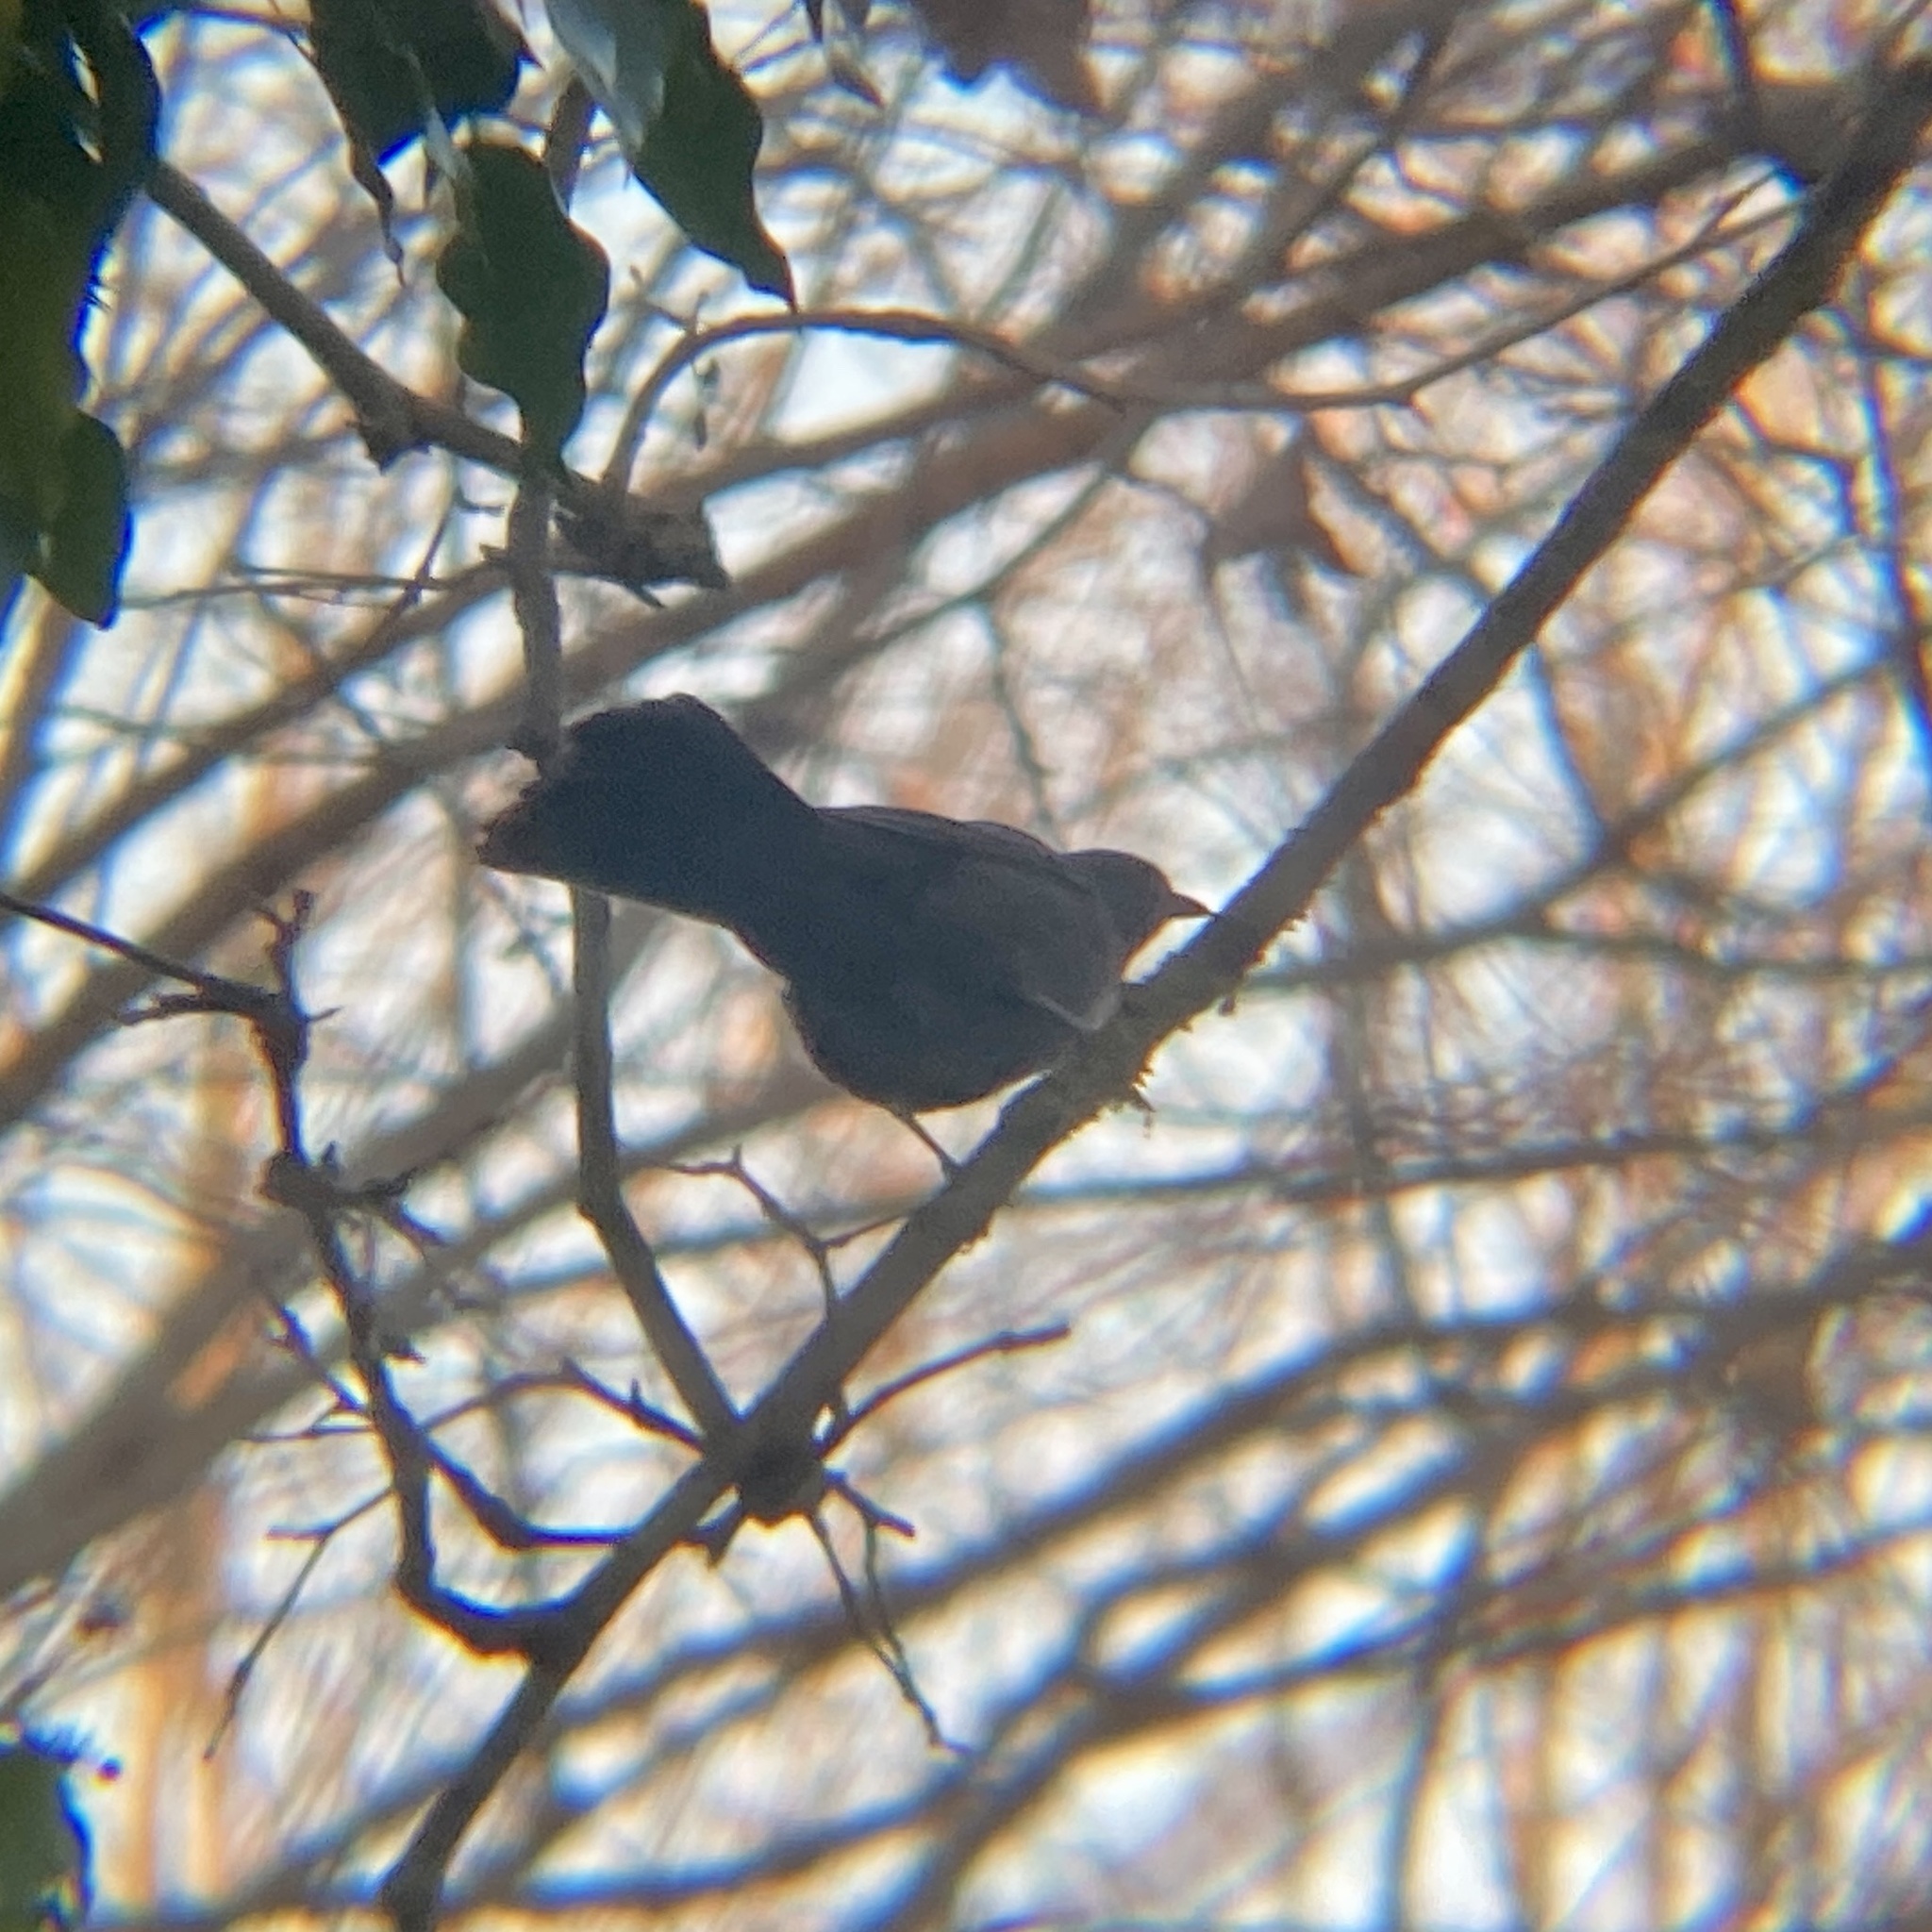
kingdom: Animalia
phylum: Chordata
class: Aves
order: Passeriformes
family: Turdidae
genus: Turdus
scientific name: Turdus merula
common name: Common blackbird
